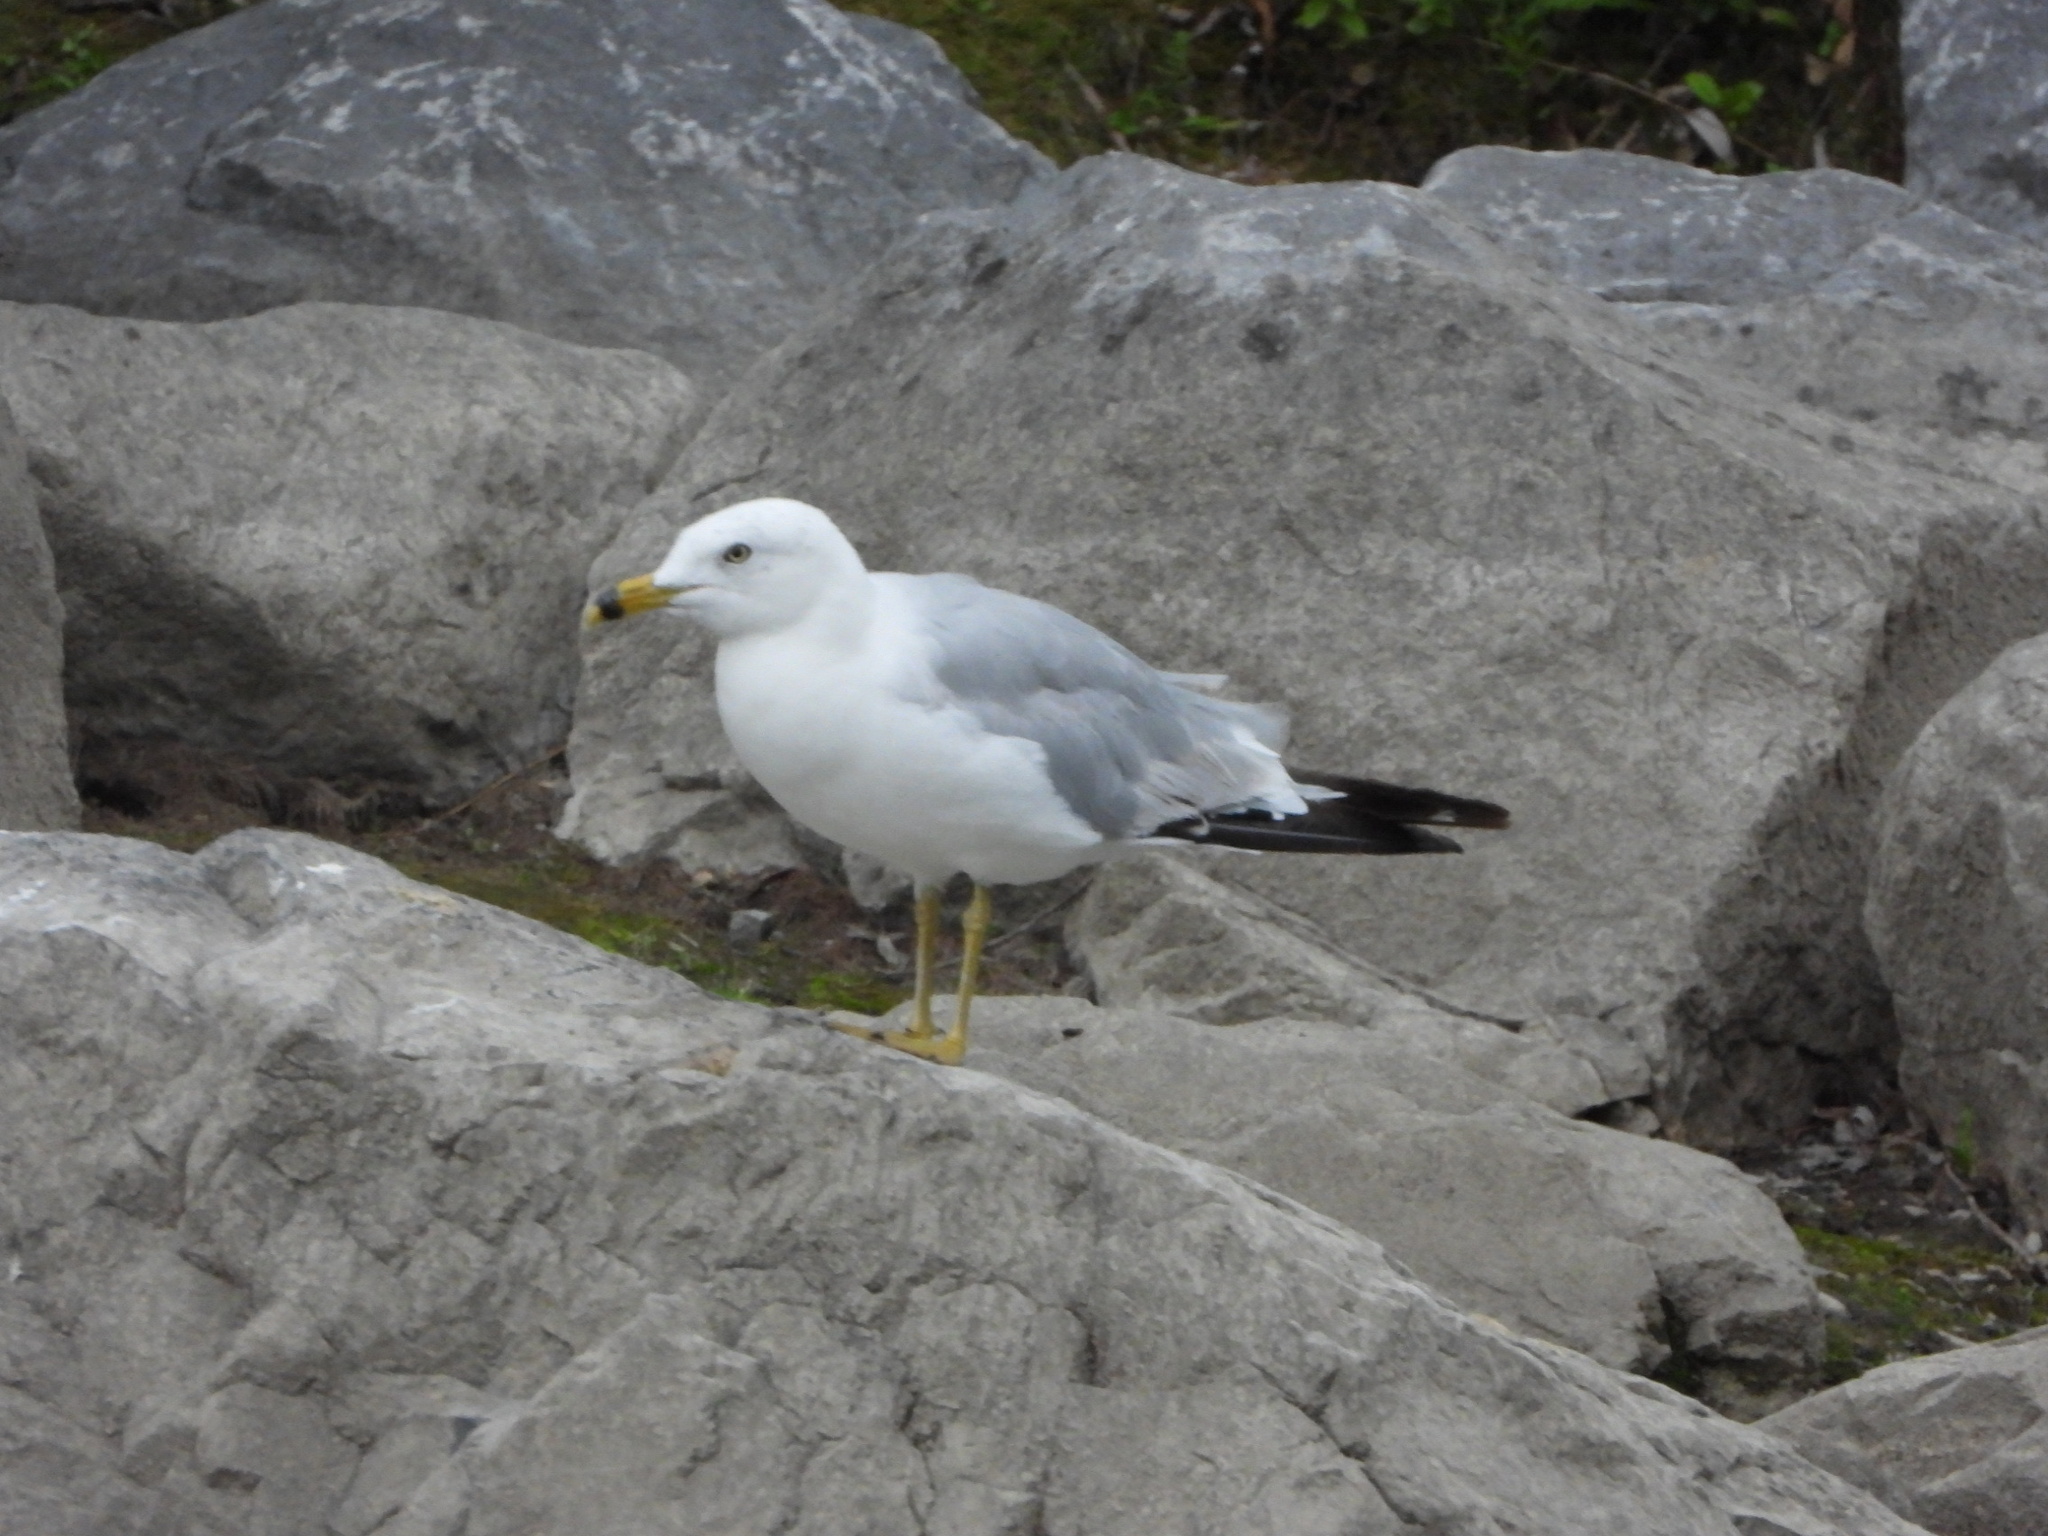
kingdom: Animalia
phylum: Chordata
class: Aves
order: Charadriiformes
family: Laridae
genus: Larus
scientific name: Larus delawarensis
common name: Ring-billed gull
